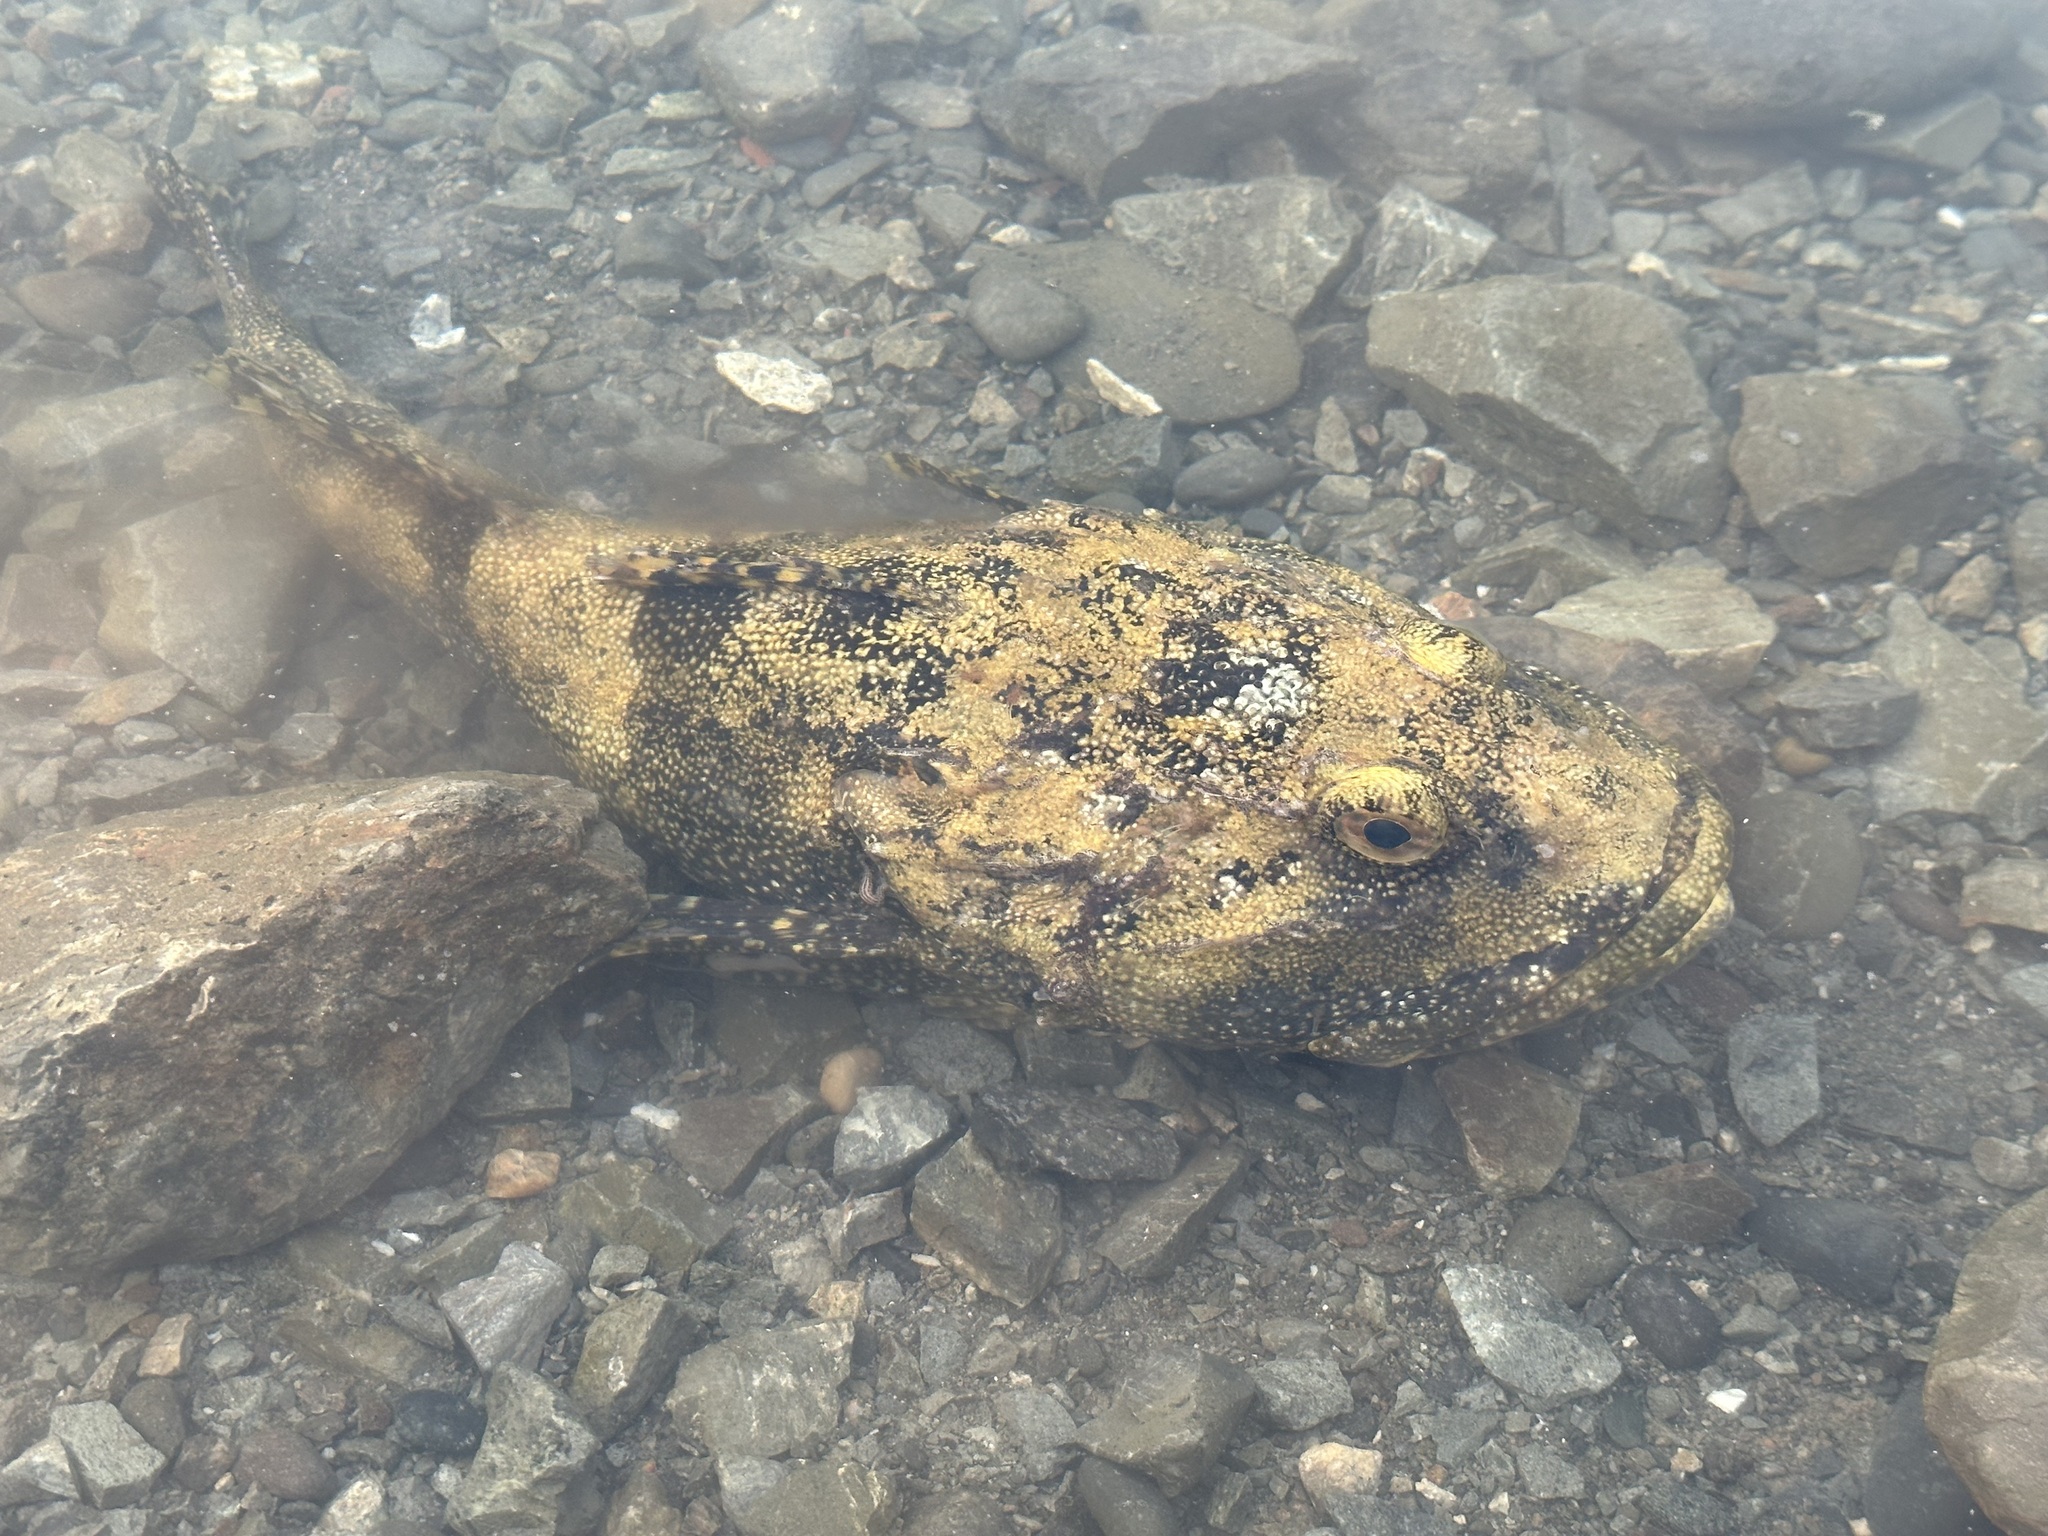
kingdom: Animalia
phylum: Chordata
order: Scorpaeniformes
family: Cottidae
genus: Myoxocephalus
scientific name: Myoxocephalus polyacanthocephalus
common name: Great sculpin
